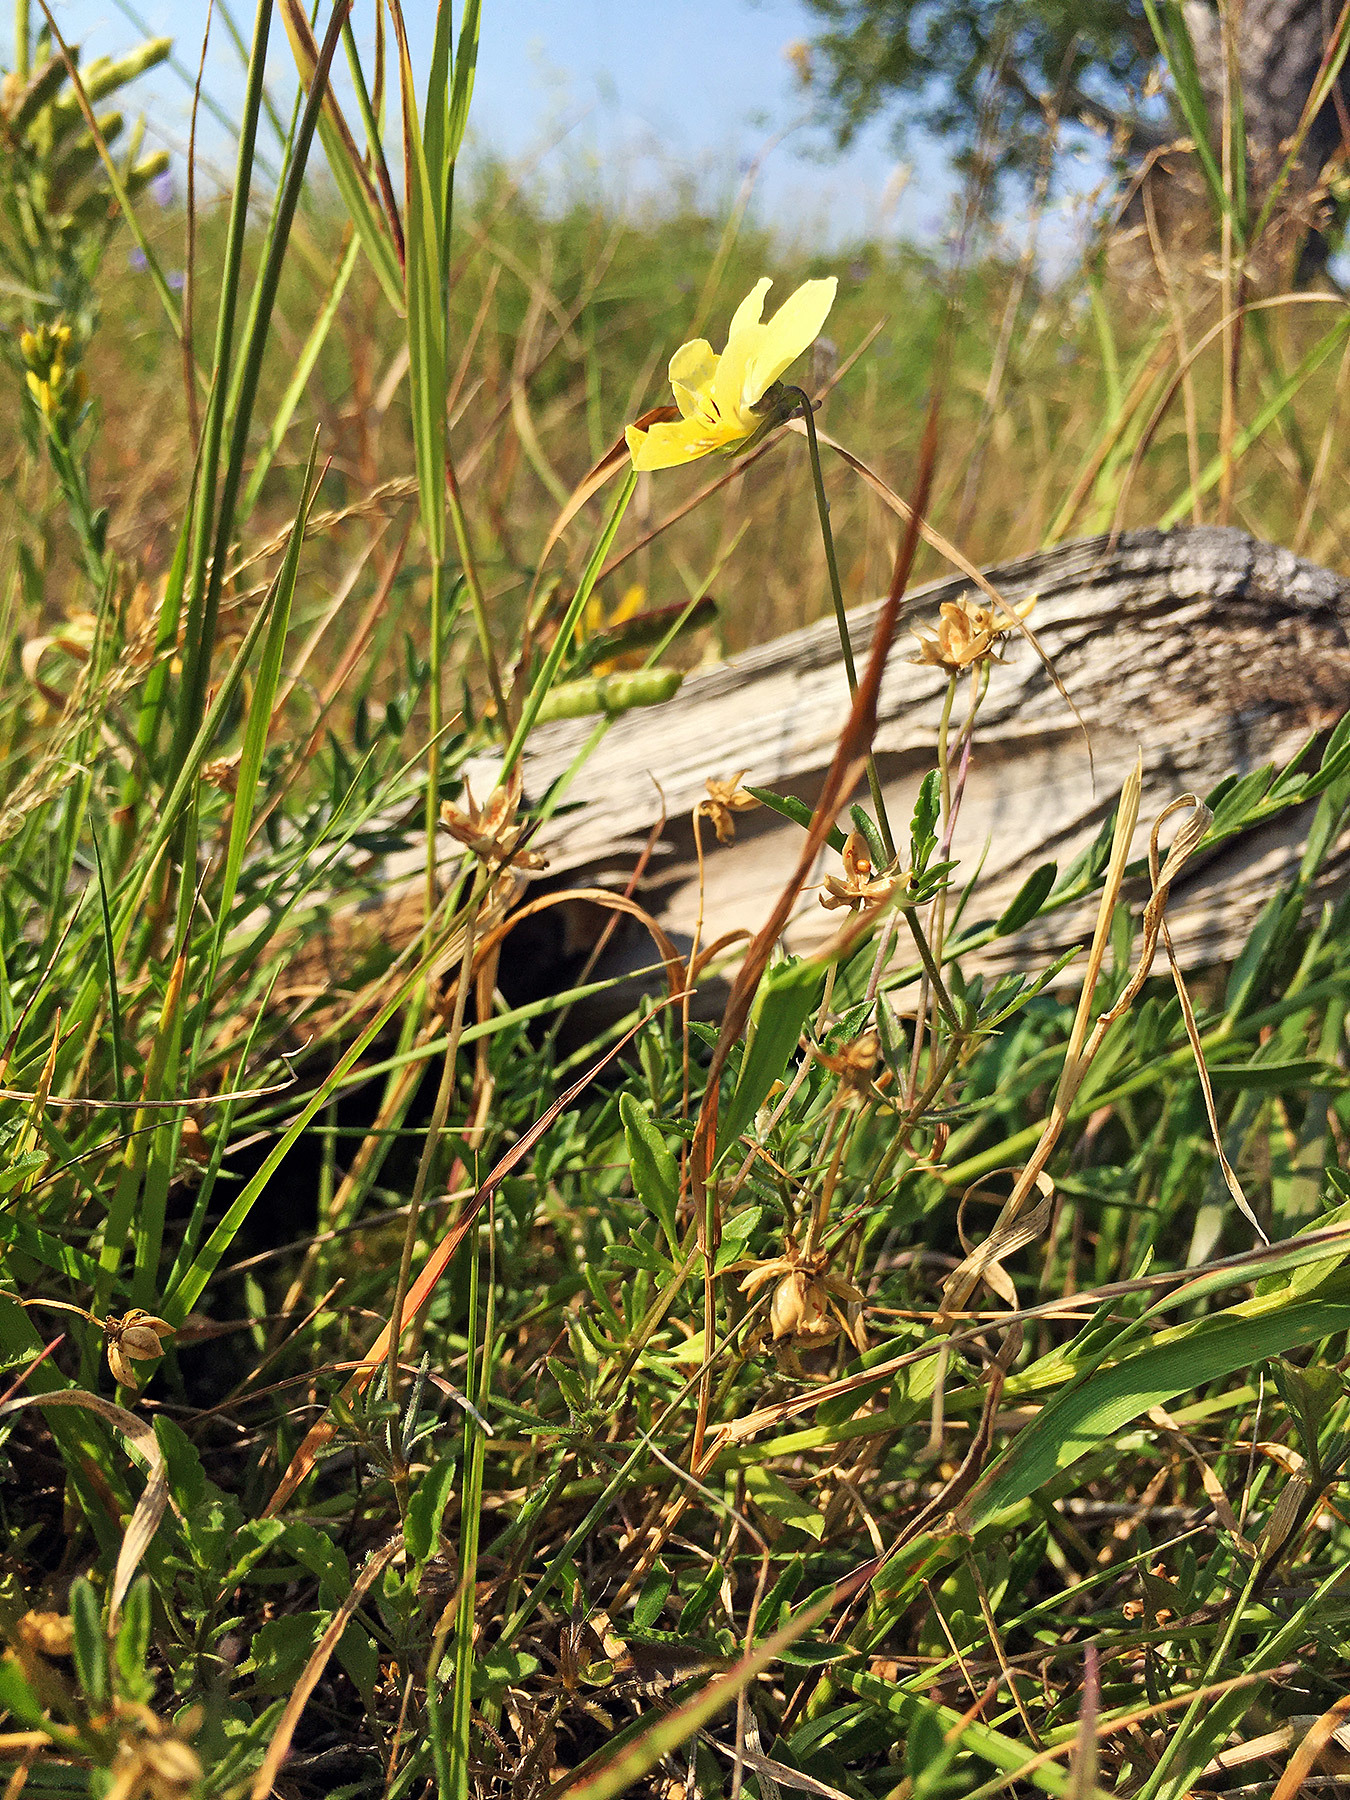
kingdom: Plantae
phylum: Tracheophyta
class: Magnoliopsida
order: Malpighiales
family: Violaceae
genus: Viola
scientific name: Viola lutea
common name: Mountain pansy
